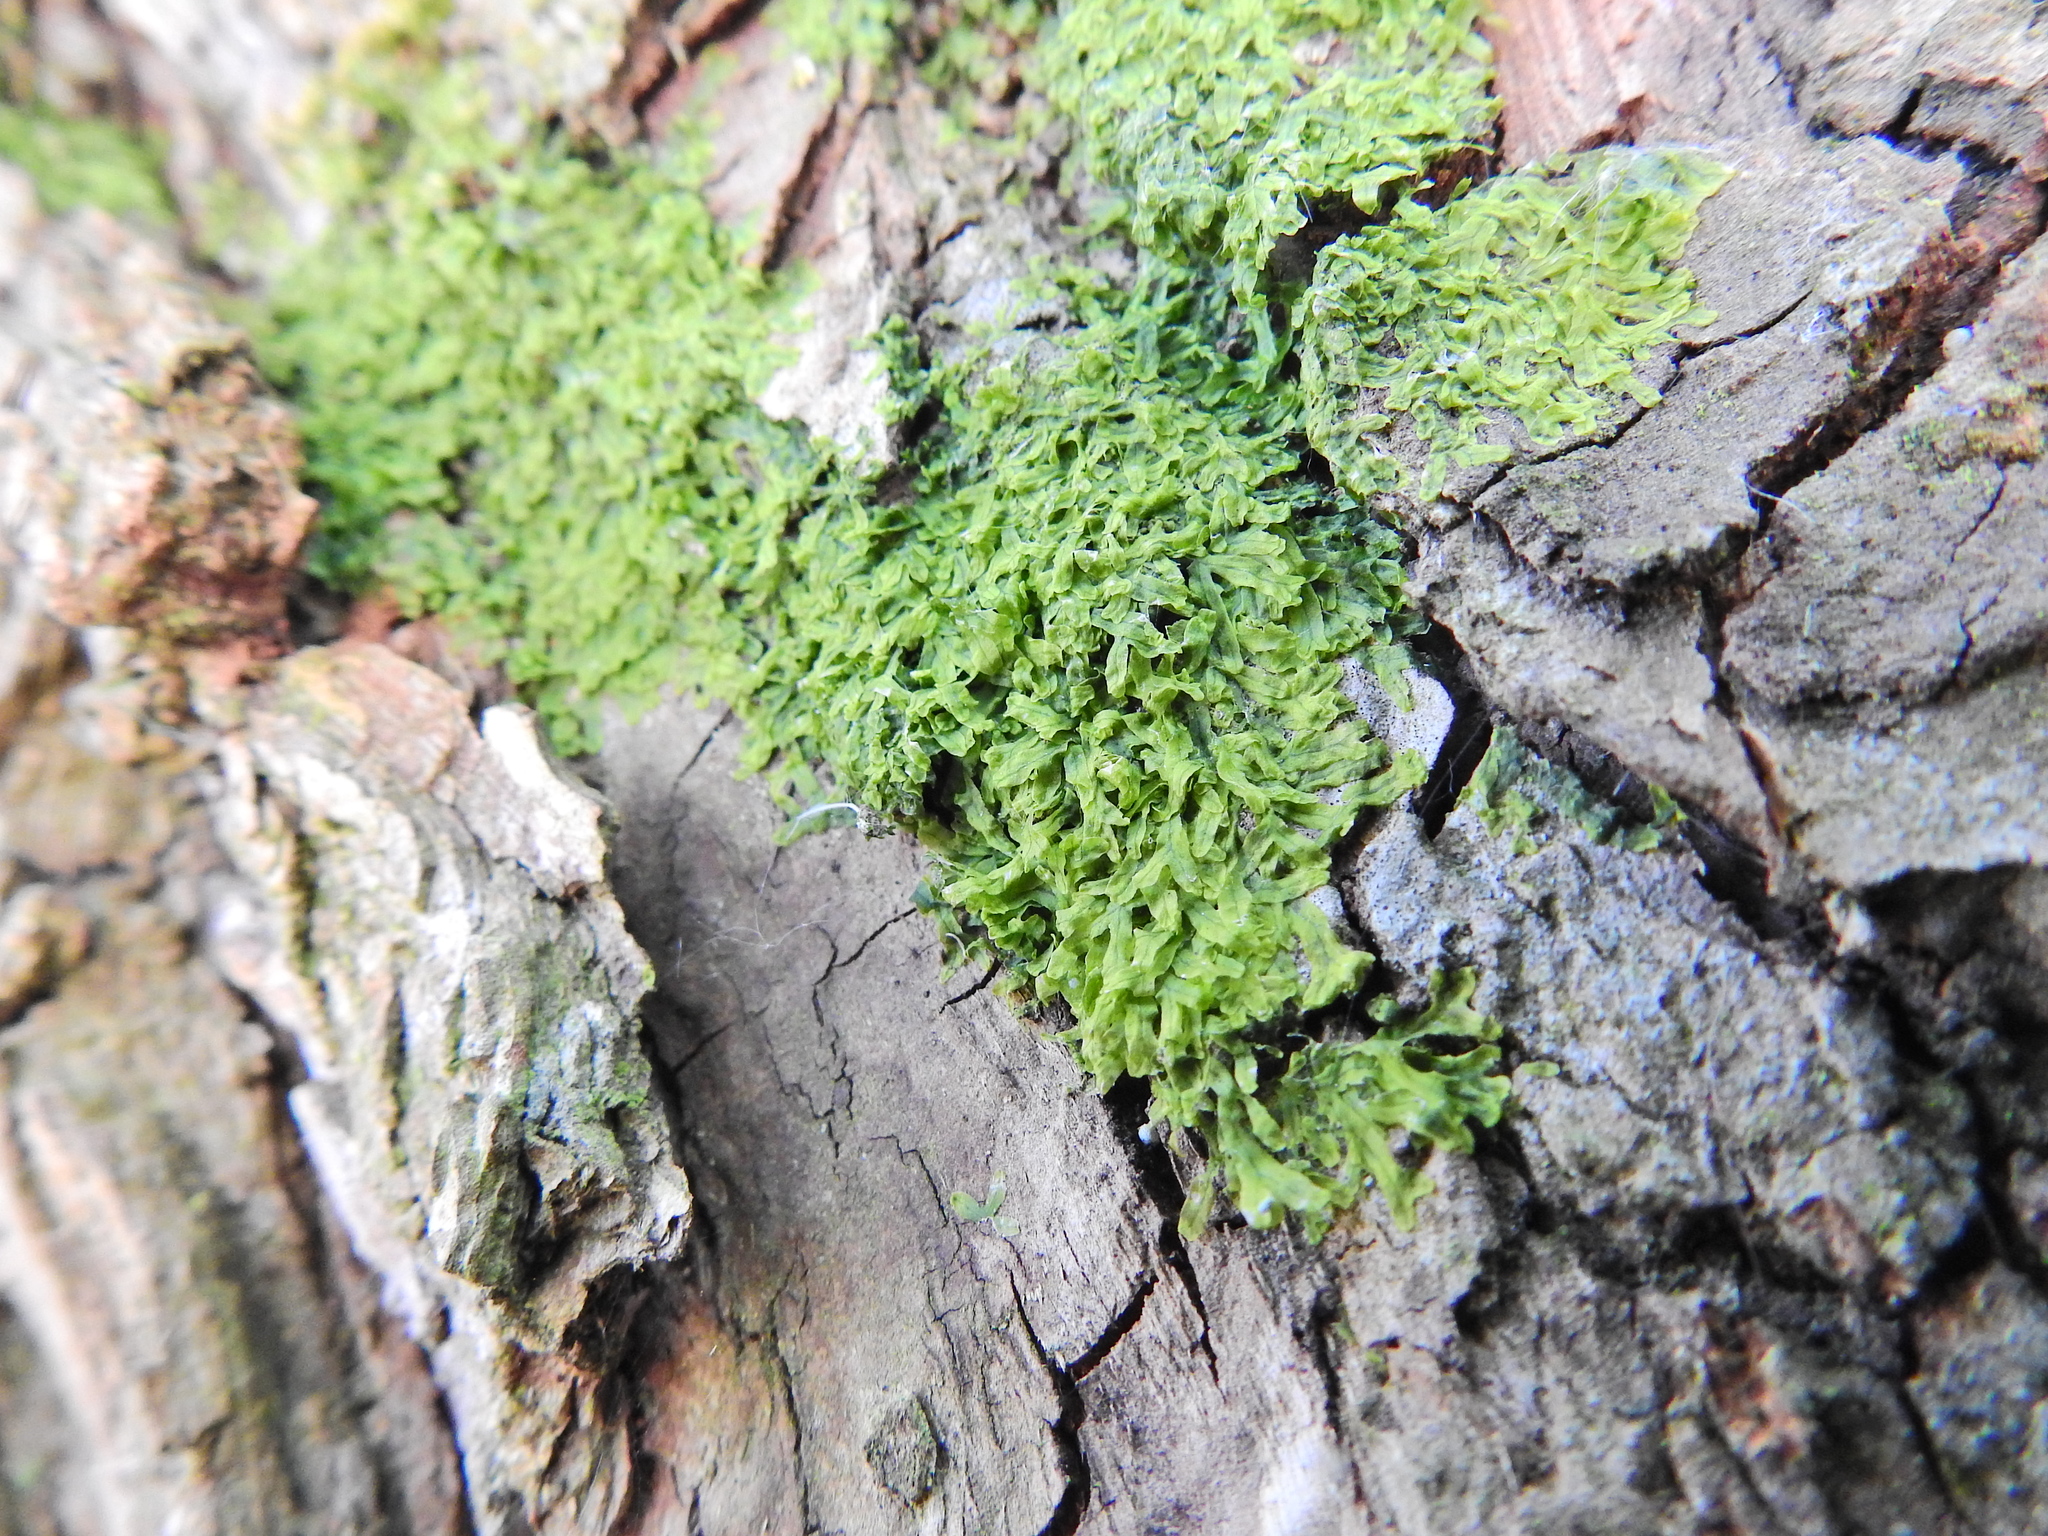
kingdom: Plantae
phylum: Marchantiophyta
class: Jungermanniopsida
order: Metzgeriales
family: Metzgeriaceae
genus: Metzgeria
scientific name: Metzgeria furcata
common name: Forked veilwort
